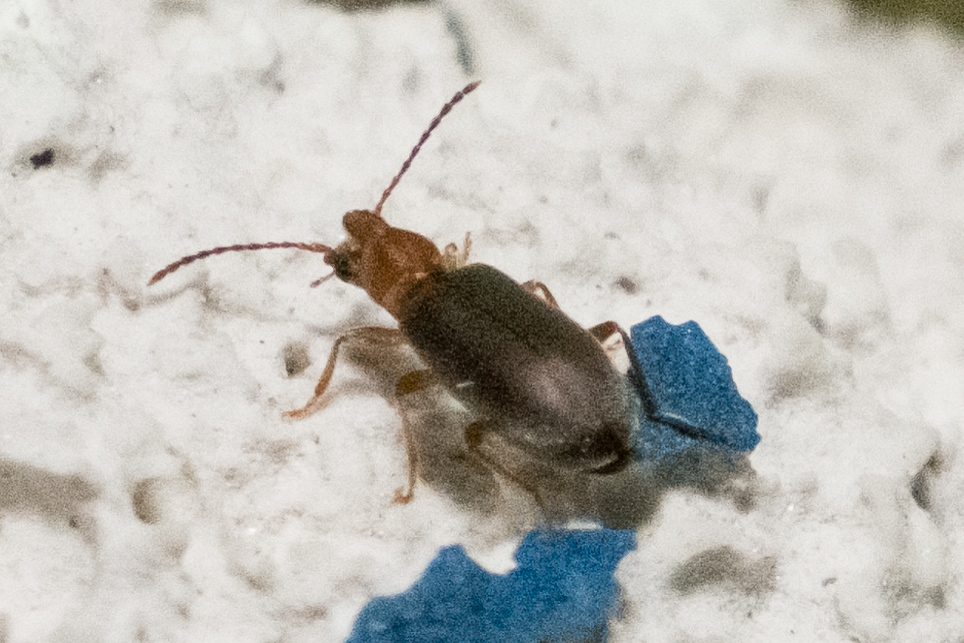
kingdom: Animalia
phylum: Arthropoda
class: Insecta
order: Coleoptera
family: Anthicidae
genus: Notoxus
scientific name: Notoxus murinipennis
